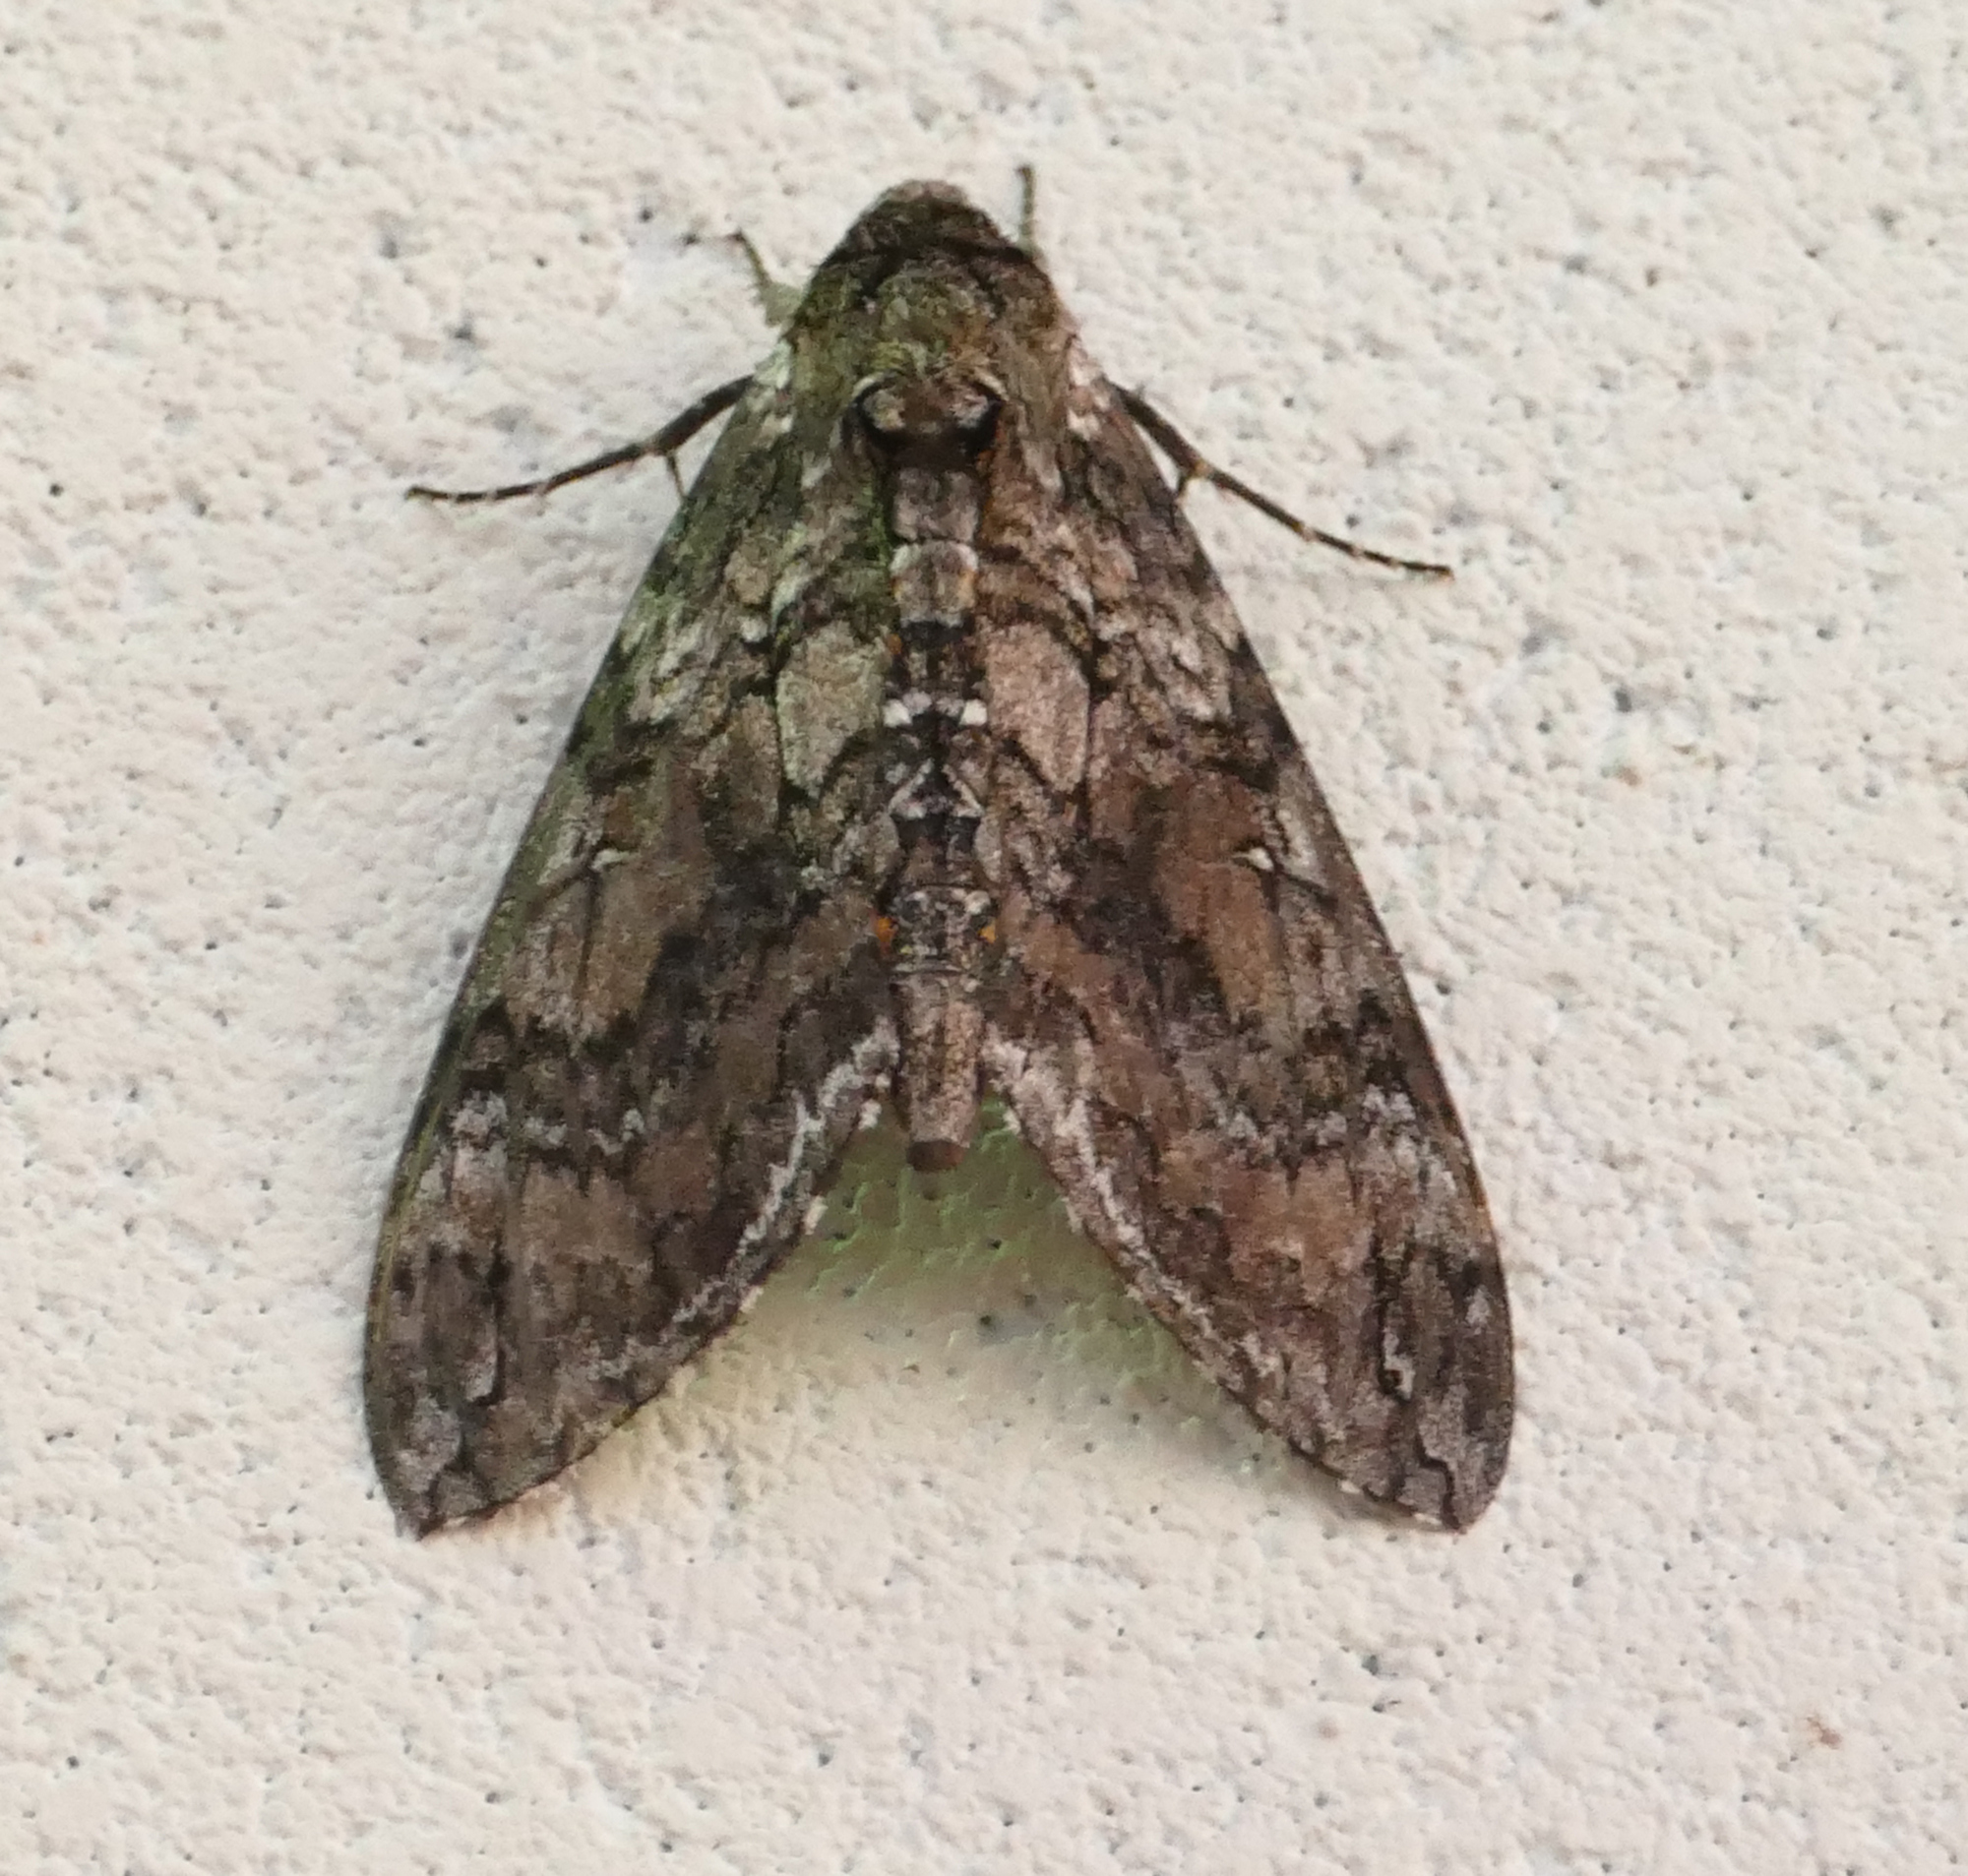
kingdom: Animalia
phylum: Arthropoda
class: Insecta
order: Lepidoptera
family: Sphingidae
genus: Manduca
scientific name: Manduca sexta
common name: Carolina sphinx
